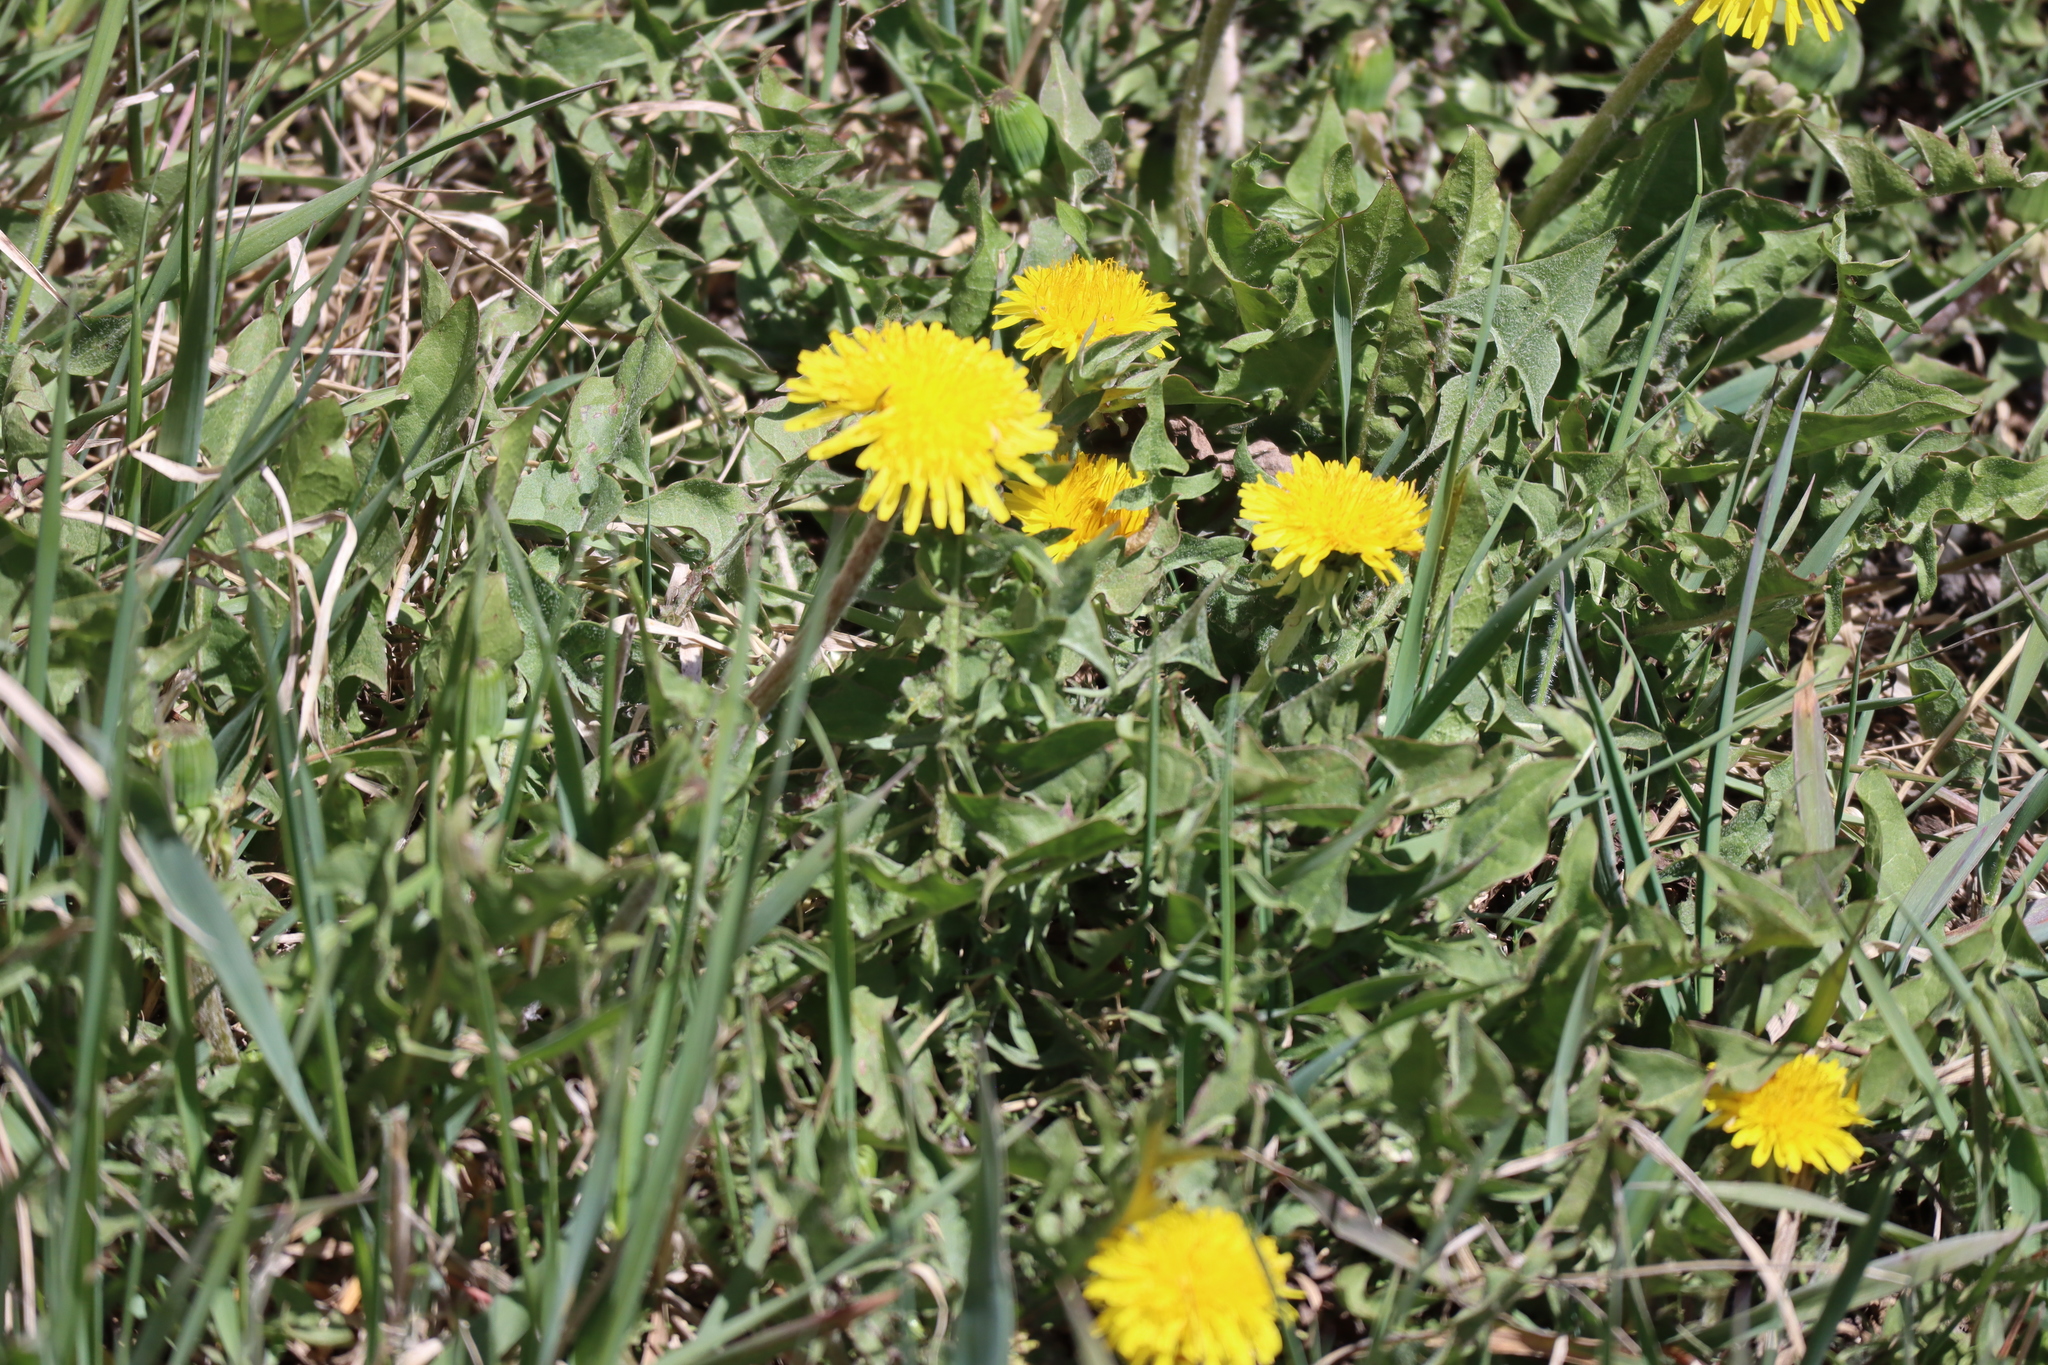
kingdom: Plantae
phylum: Tracheophyta
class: Magnoliopsida
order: Asterales
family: Asteraceae
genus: Taraxacum
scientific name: Taraxacum officinale
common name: Common dandelion
